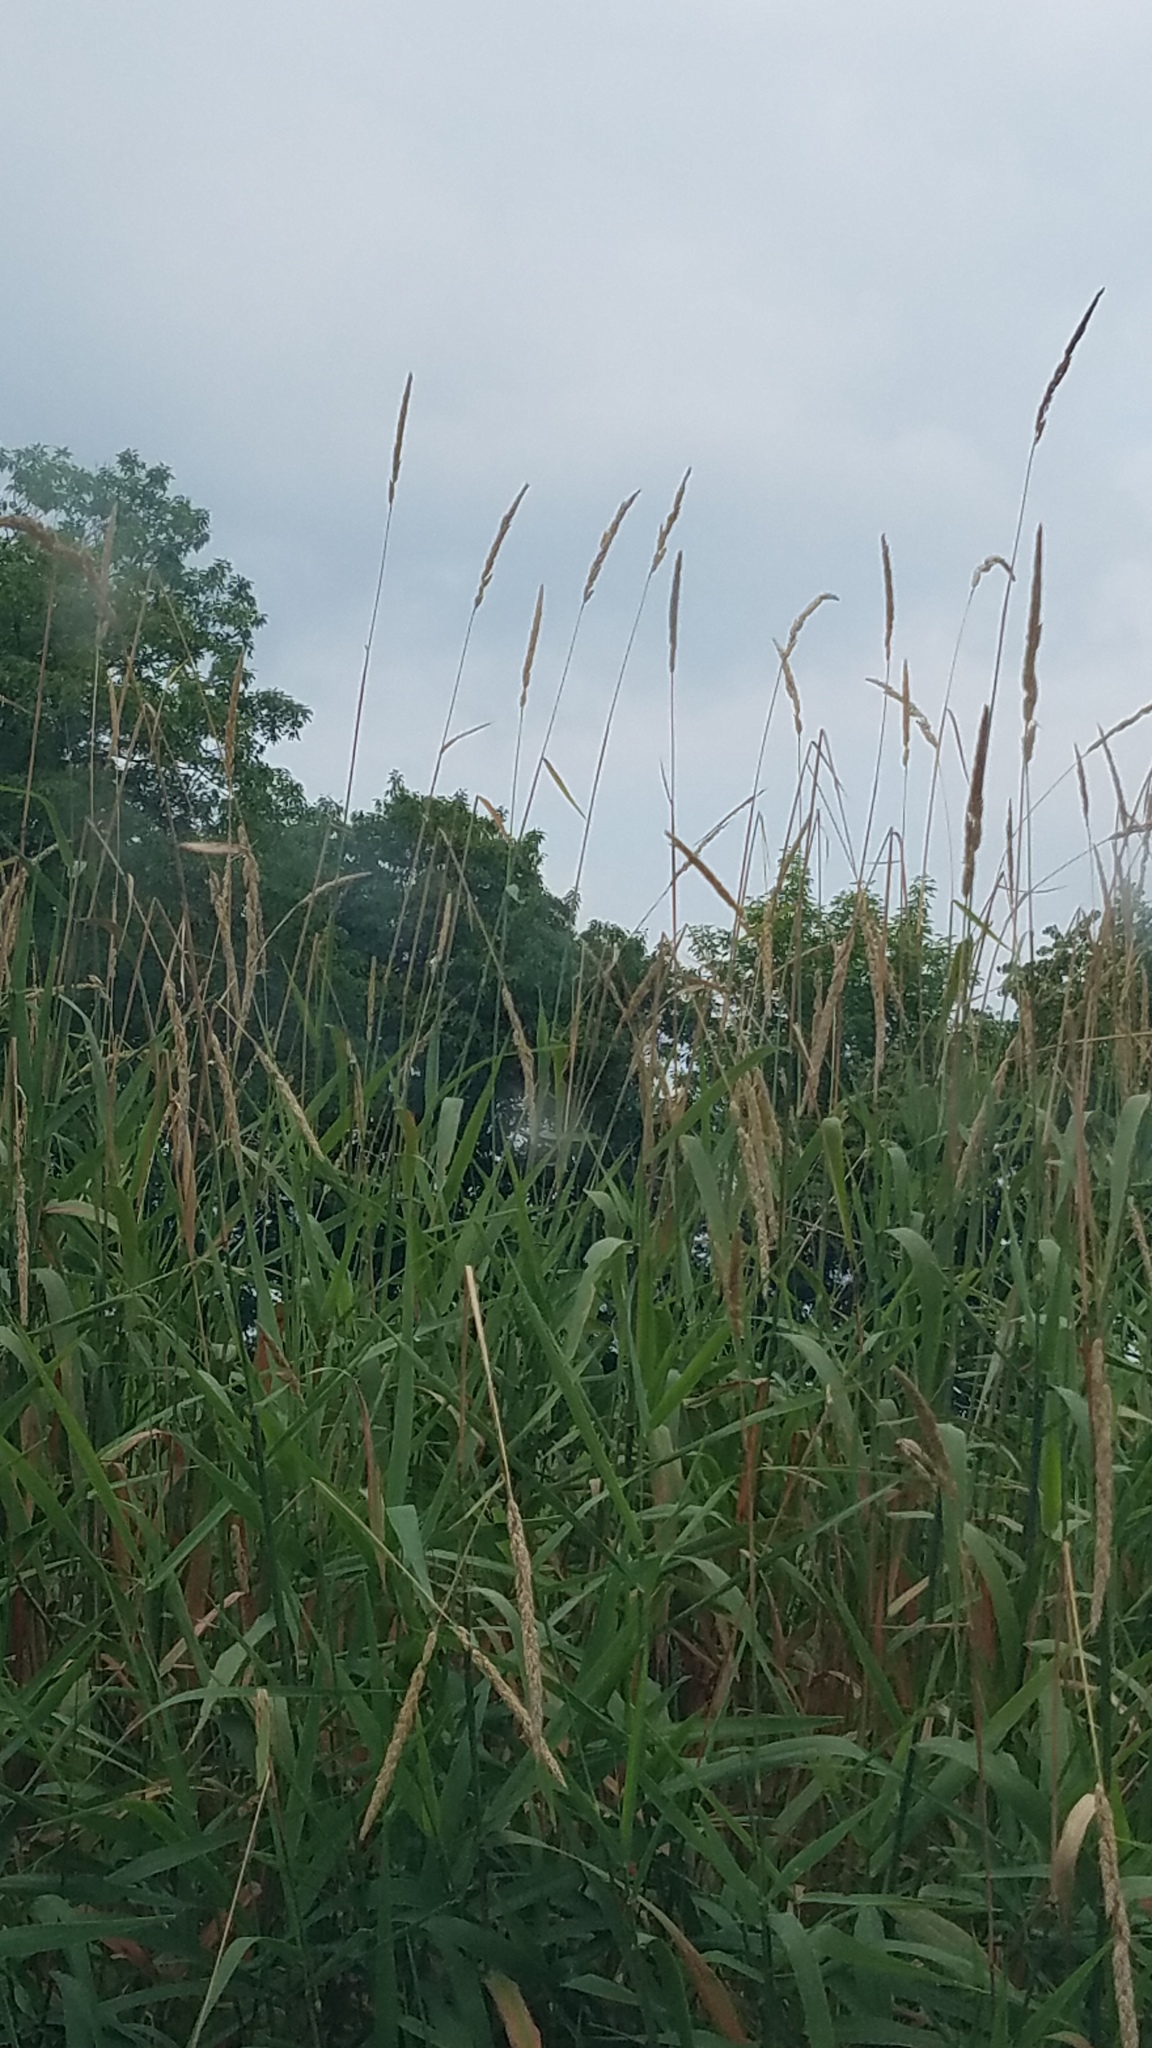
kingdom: Plantae
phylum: Tracheophyta
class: Liliopsida
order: Poales
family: Poaceae
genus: Phalaris
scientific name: Phalaris arundinacea
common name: Reed canary-grass
